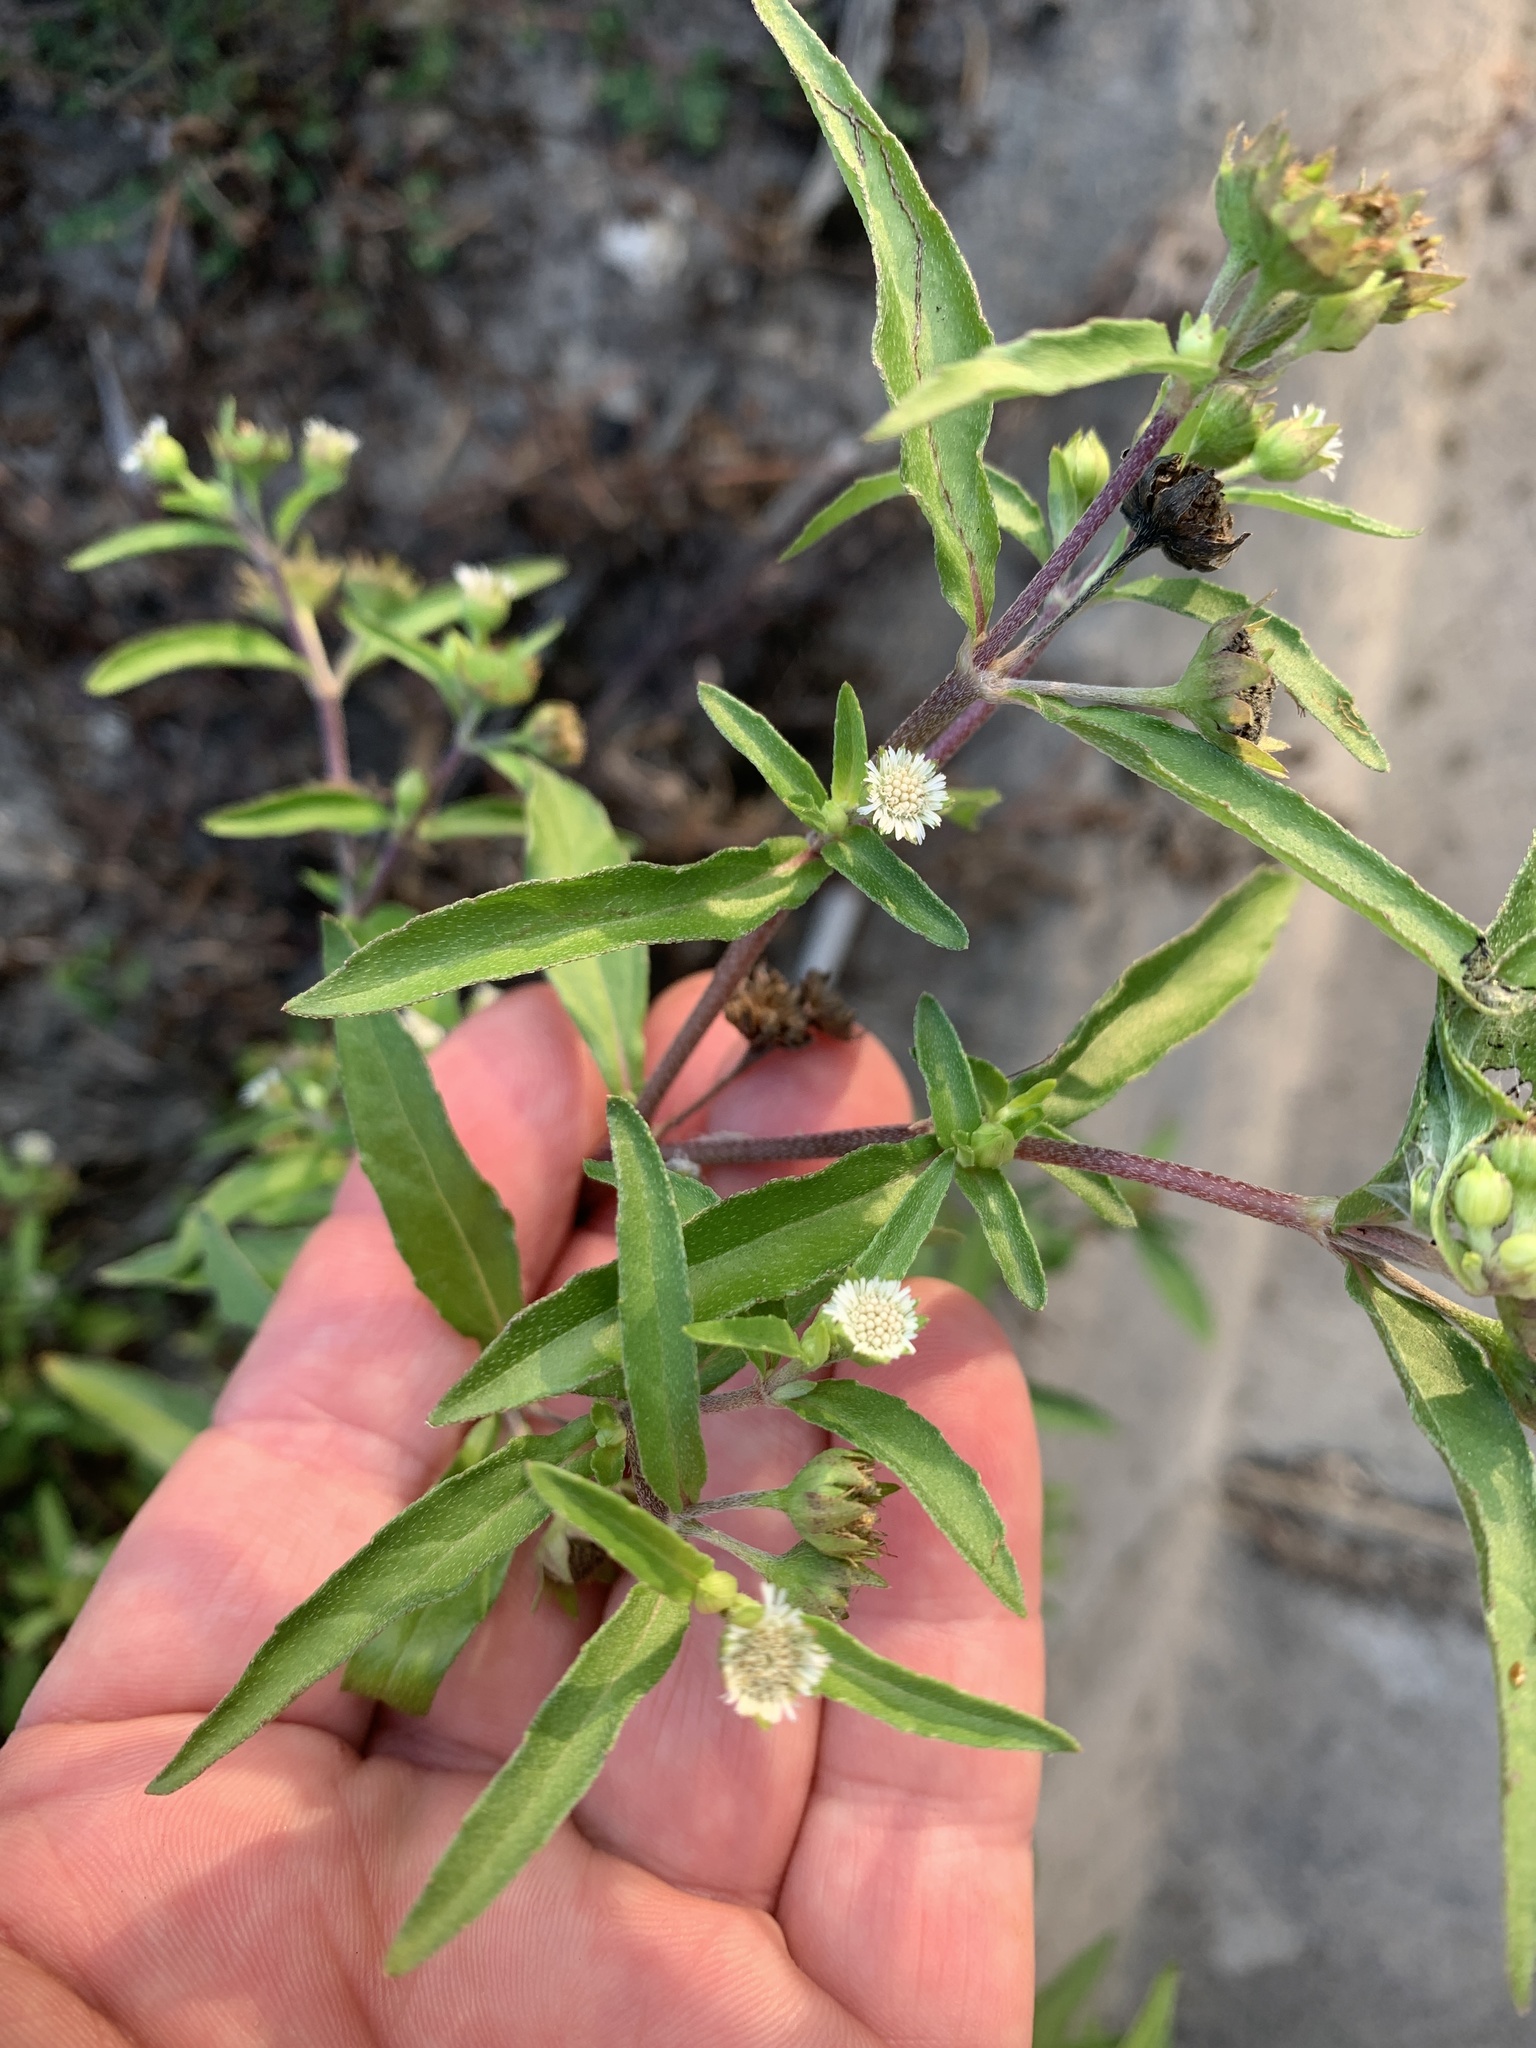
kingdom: Plantae
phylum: Tracheophyta
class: Magnoliopsida
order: Asterales
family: Asteraceae
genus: Eclipta
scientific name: Eclipta prostrata
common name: False daisy
